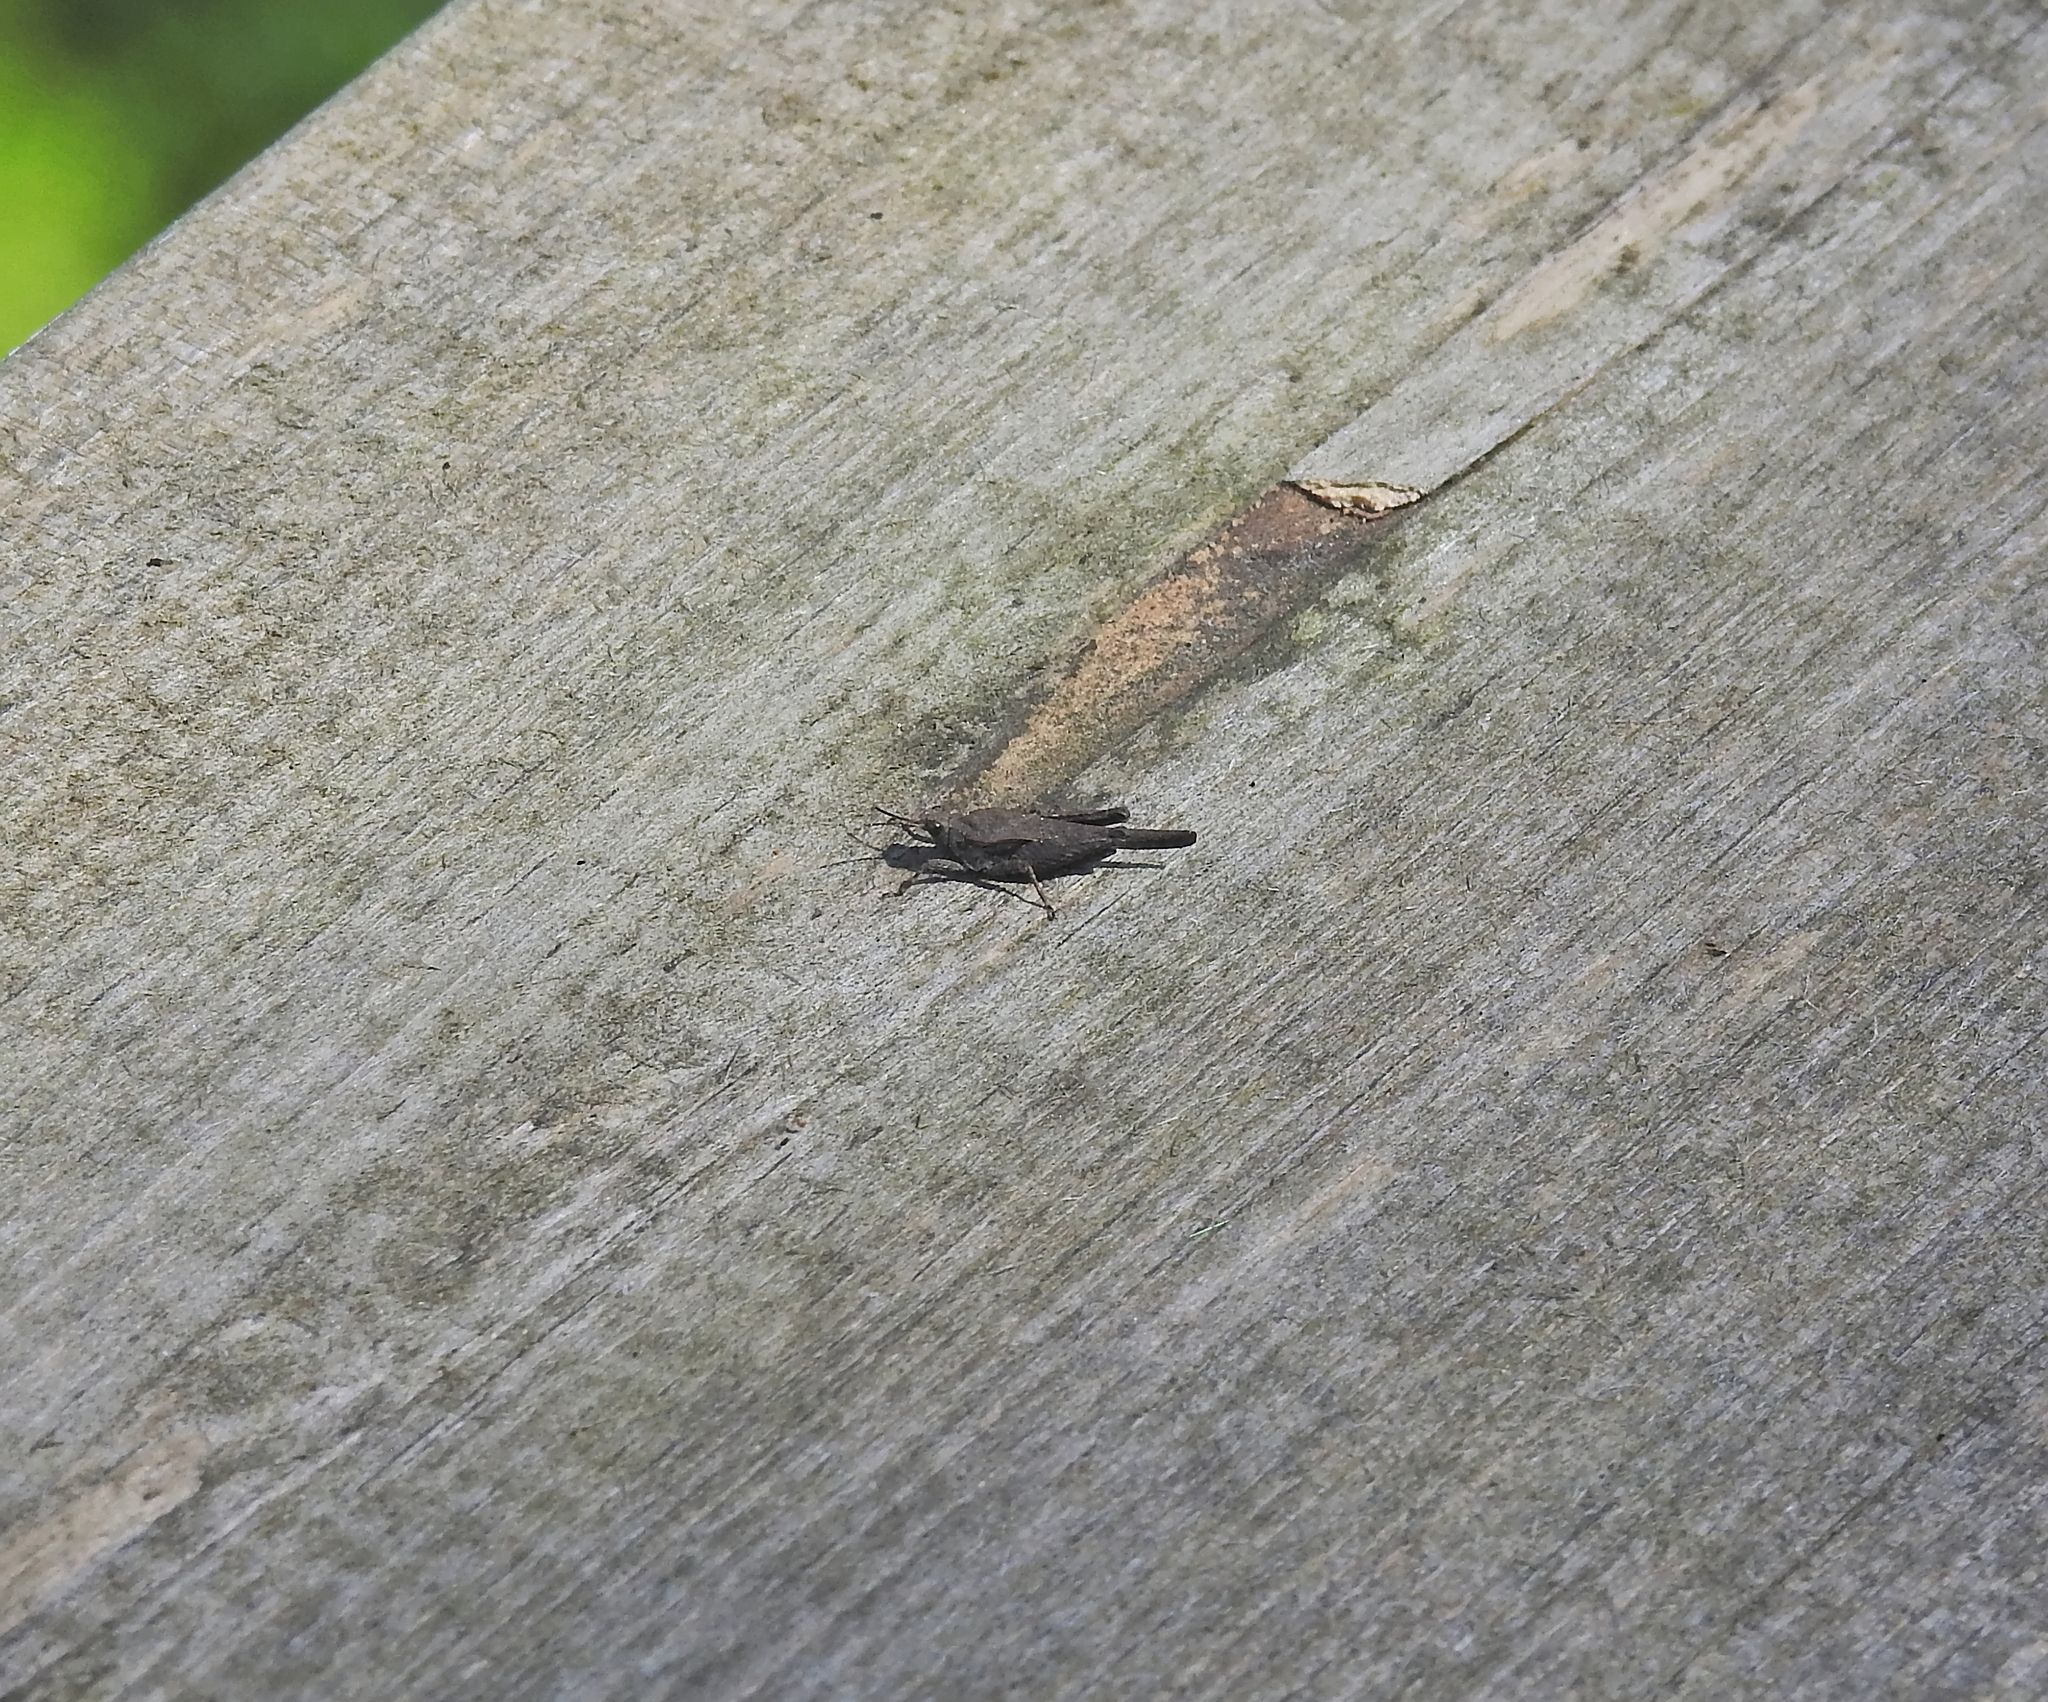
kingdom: Animalia
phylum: Arthropoda
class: Insecta
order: Orthoptera
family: Tetrigidae
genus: Tetrix
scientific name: Tetrix subulata
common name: Slender ground-hopper
